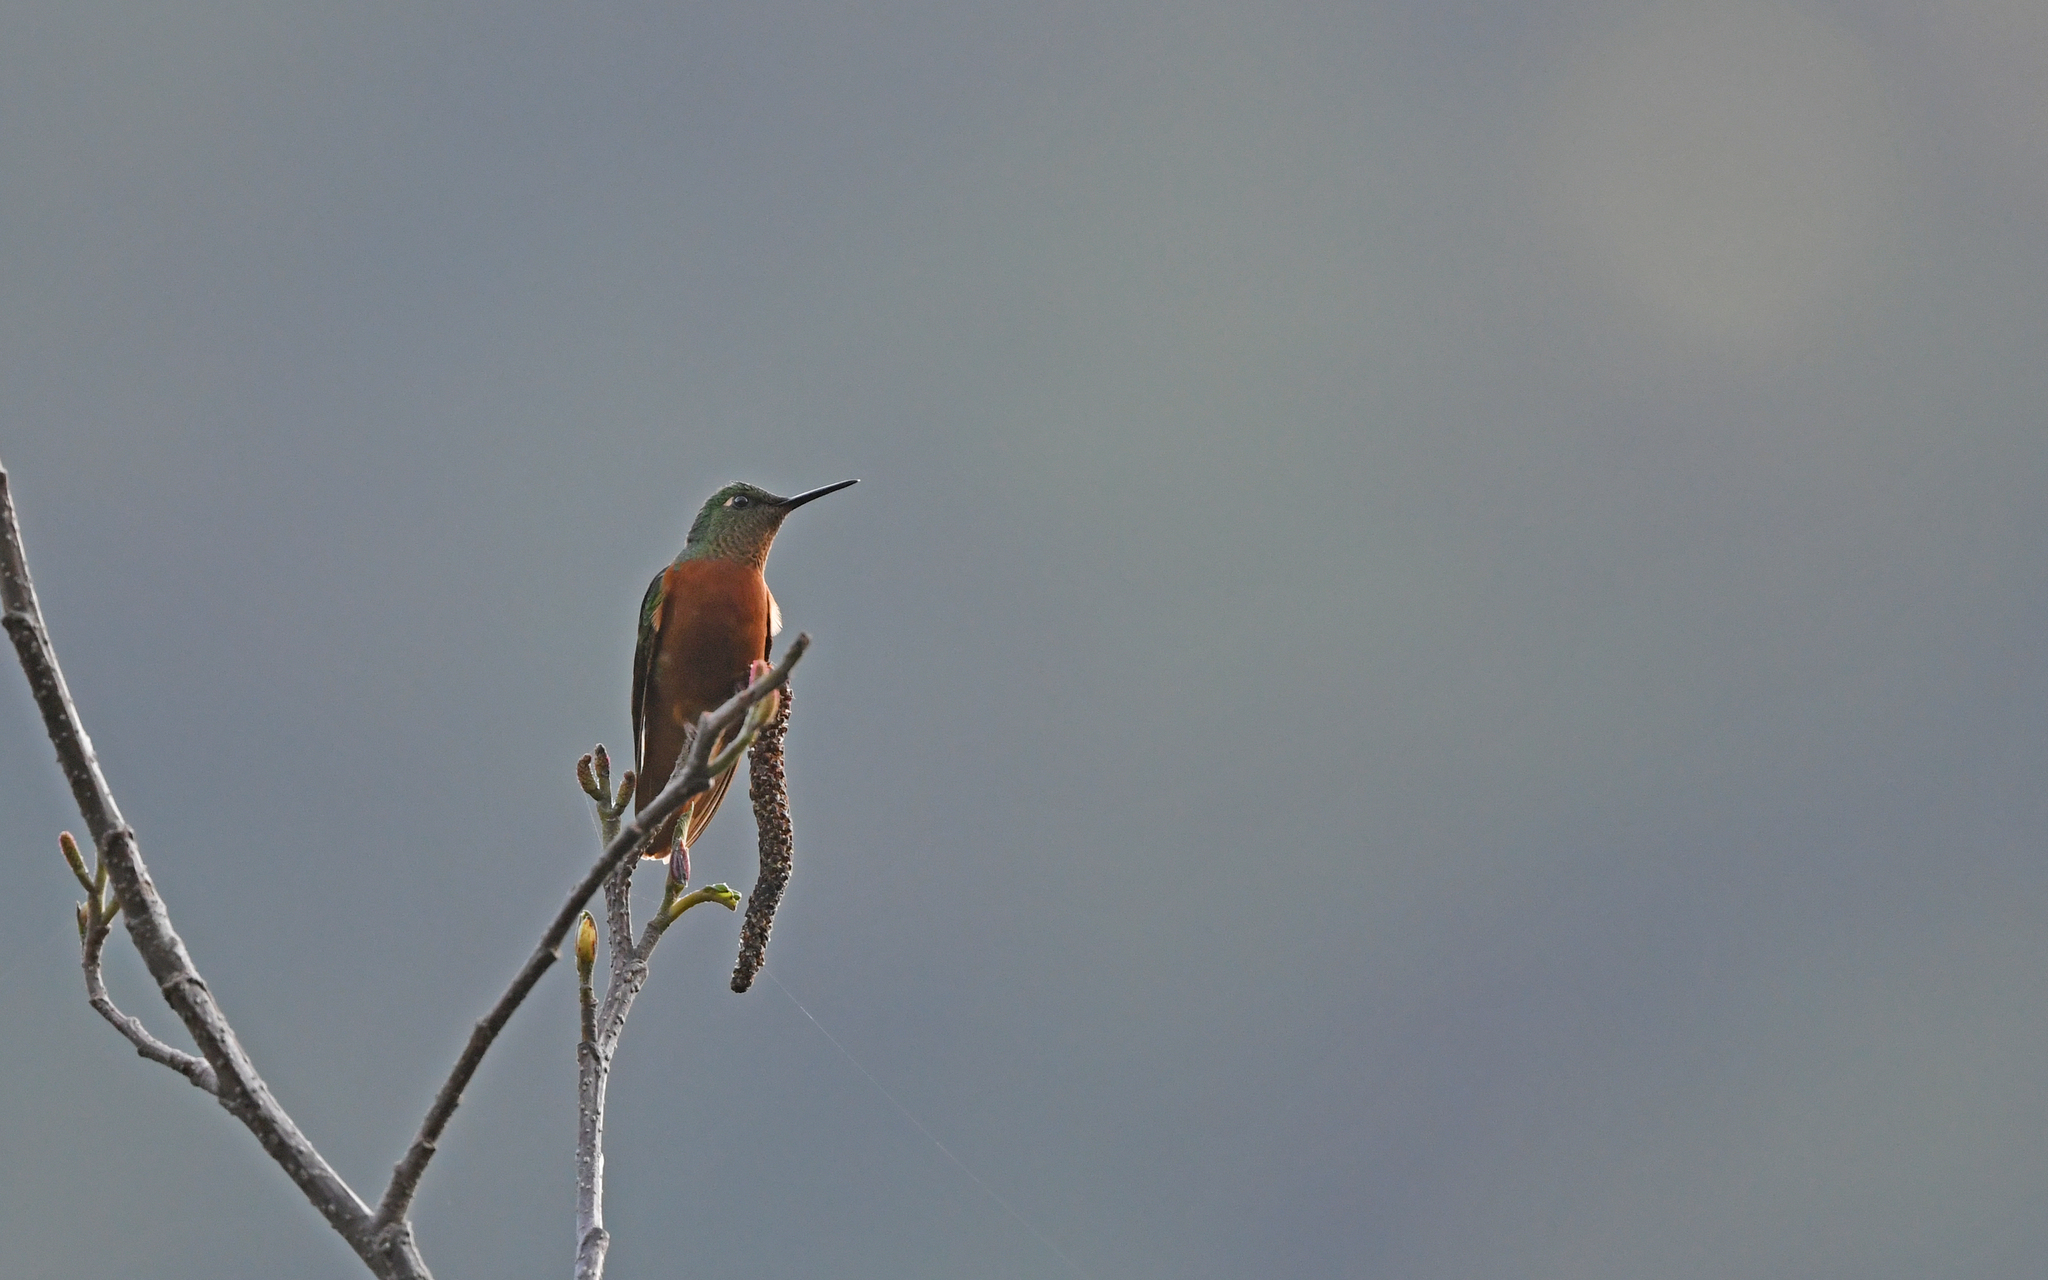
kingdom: Animalia
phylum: Chordata
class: Aves
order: Apodiformes
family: Trochilidae
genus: Boissonneaua
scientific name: Boissonneaua matthewsii
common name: Chestnut-breasted coronet
